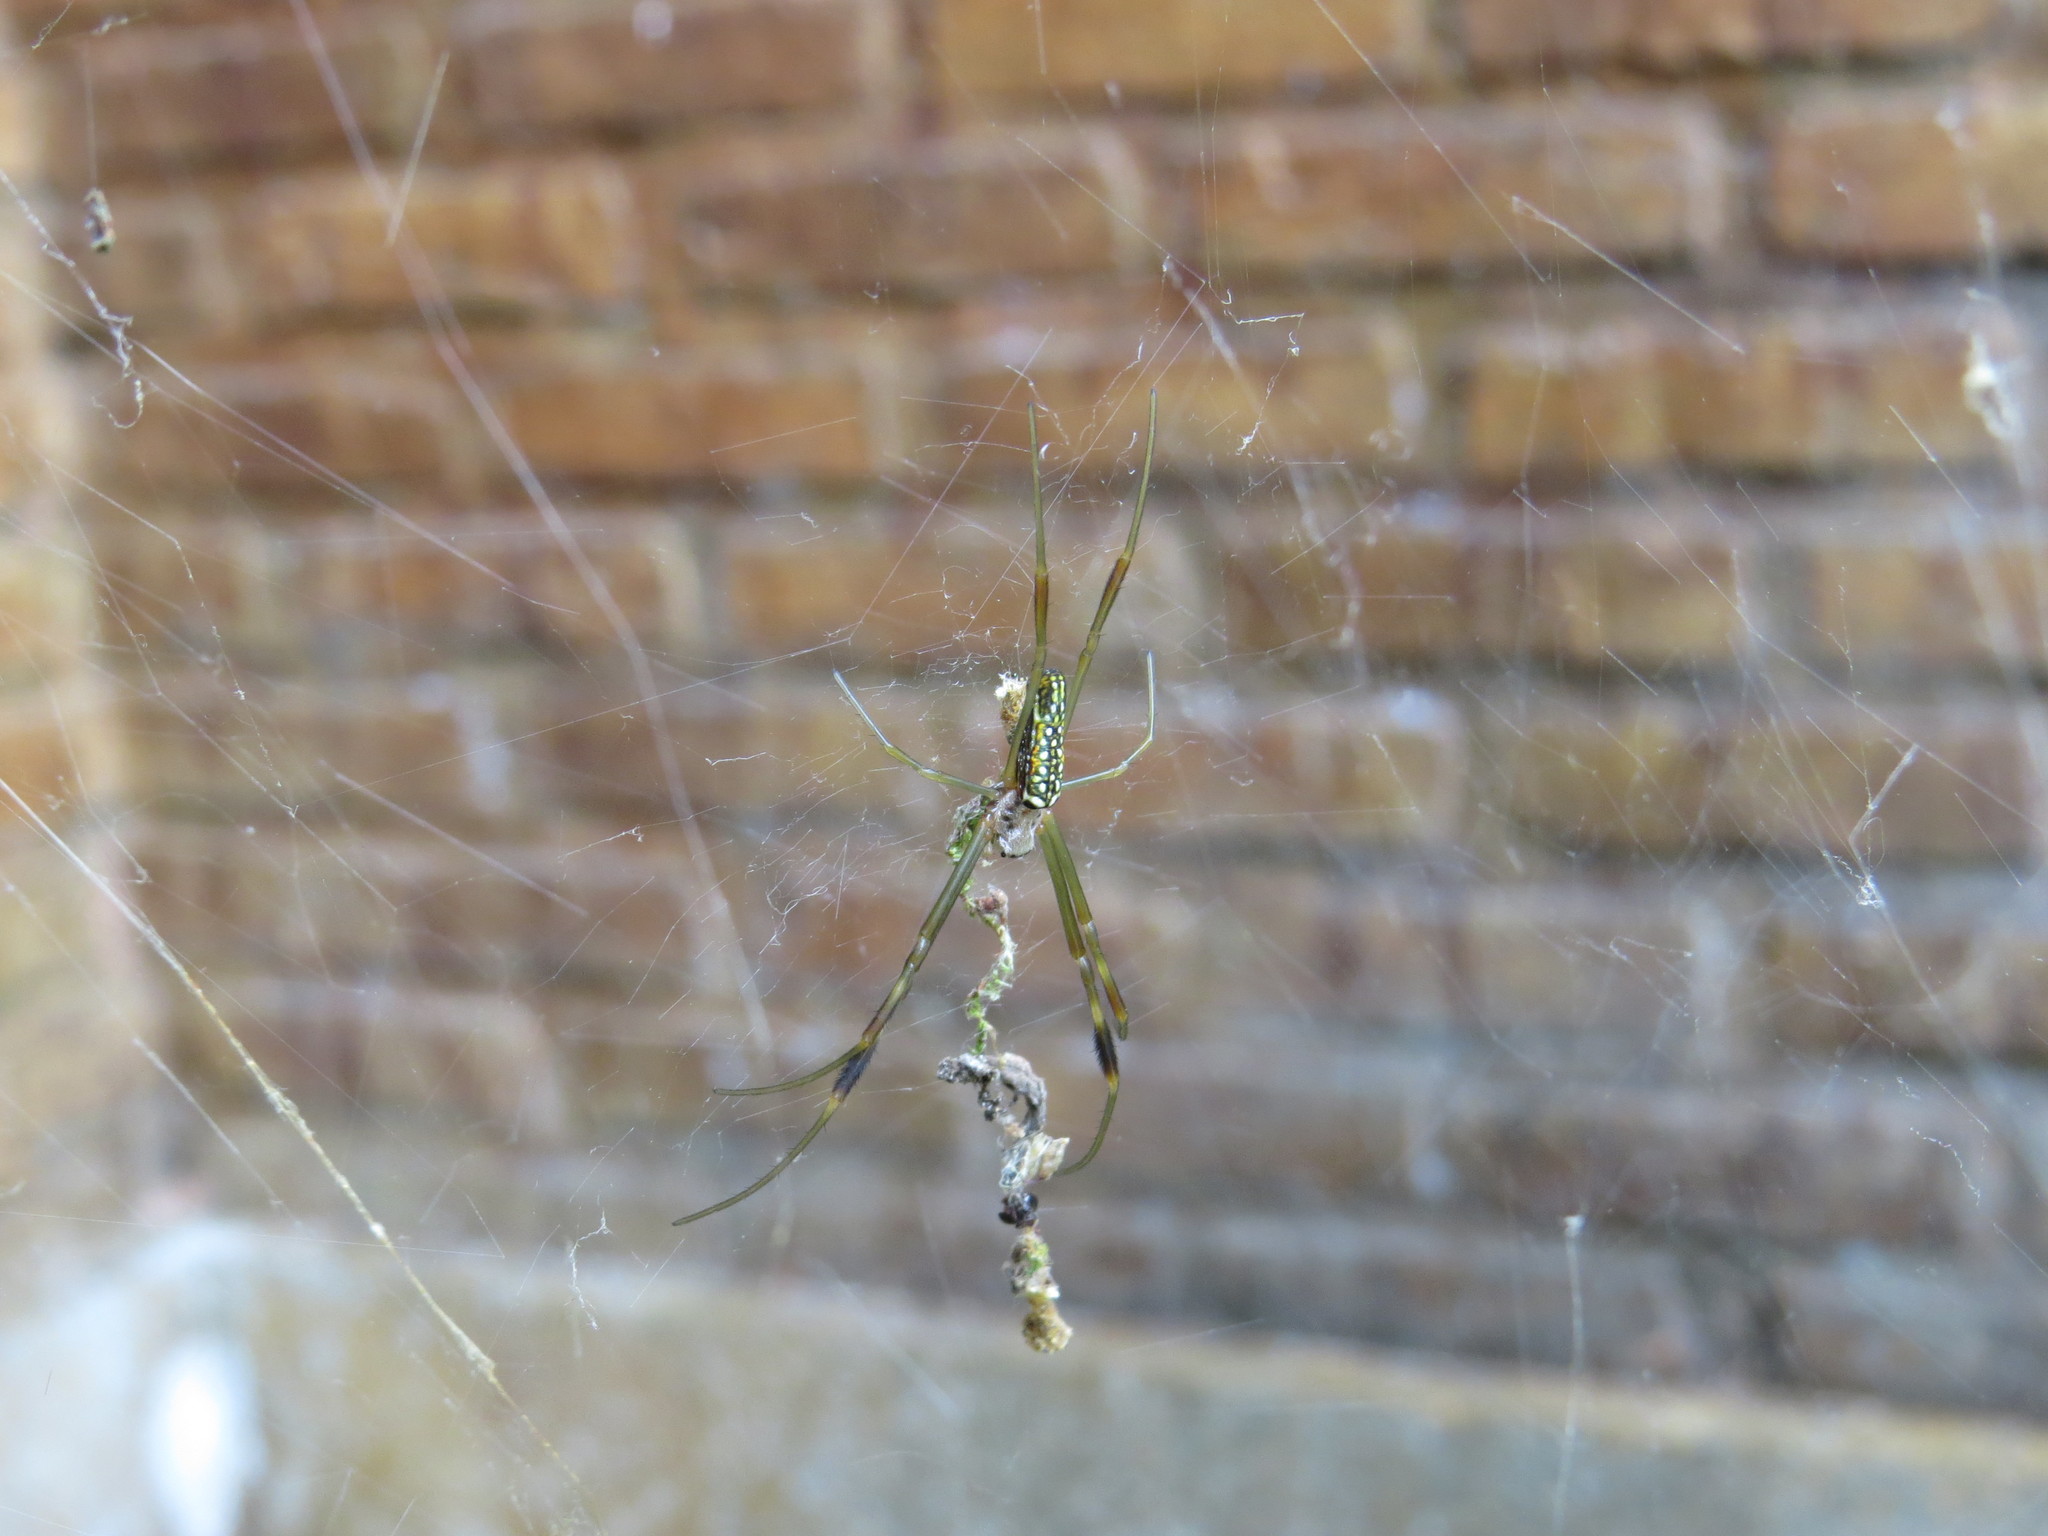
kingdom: Animalia
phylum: Arthropoda
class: Arachnida
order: Araneae
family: Araneidae
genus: Trichonephila
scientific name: Trichonephila clavipes
